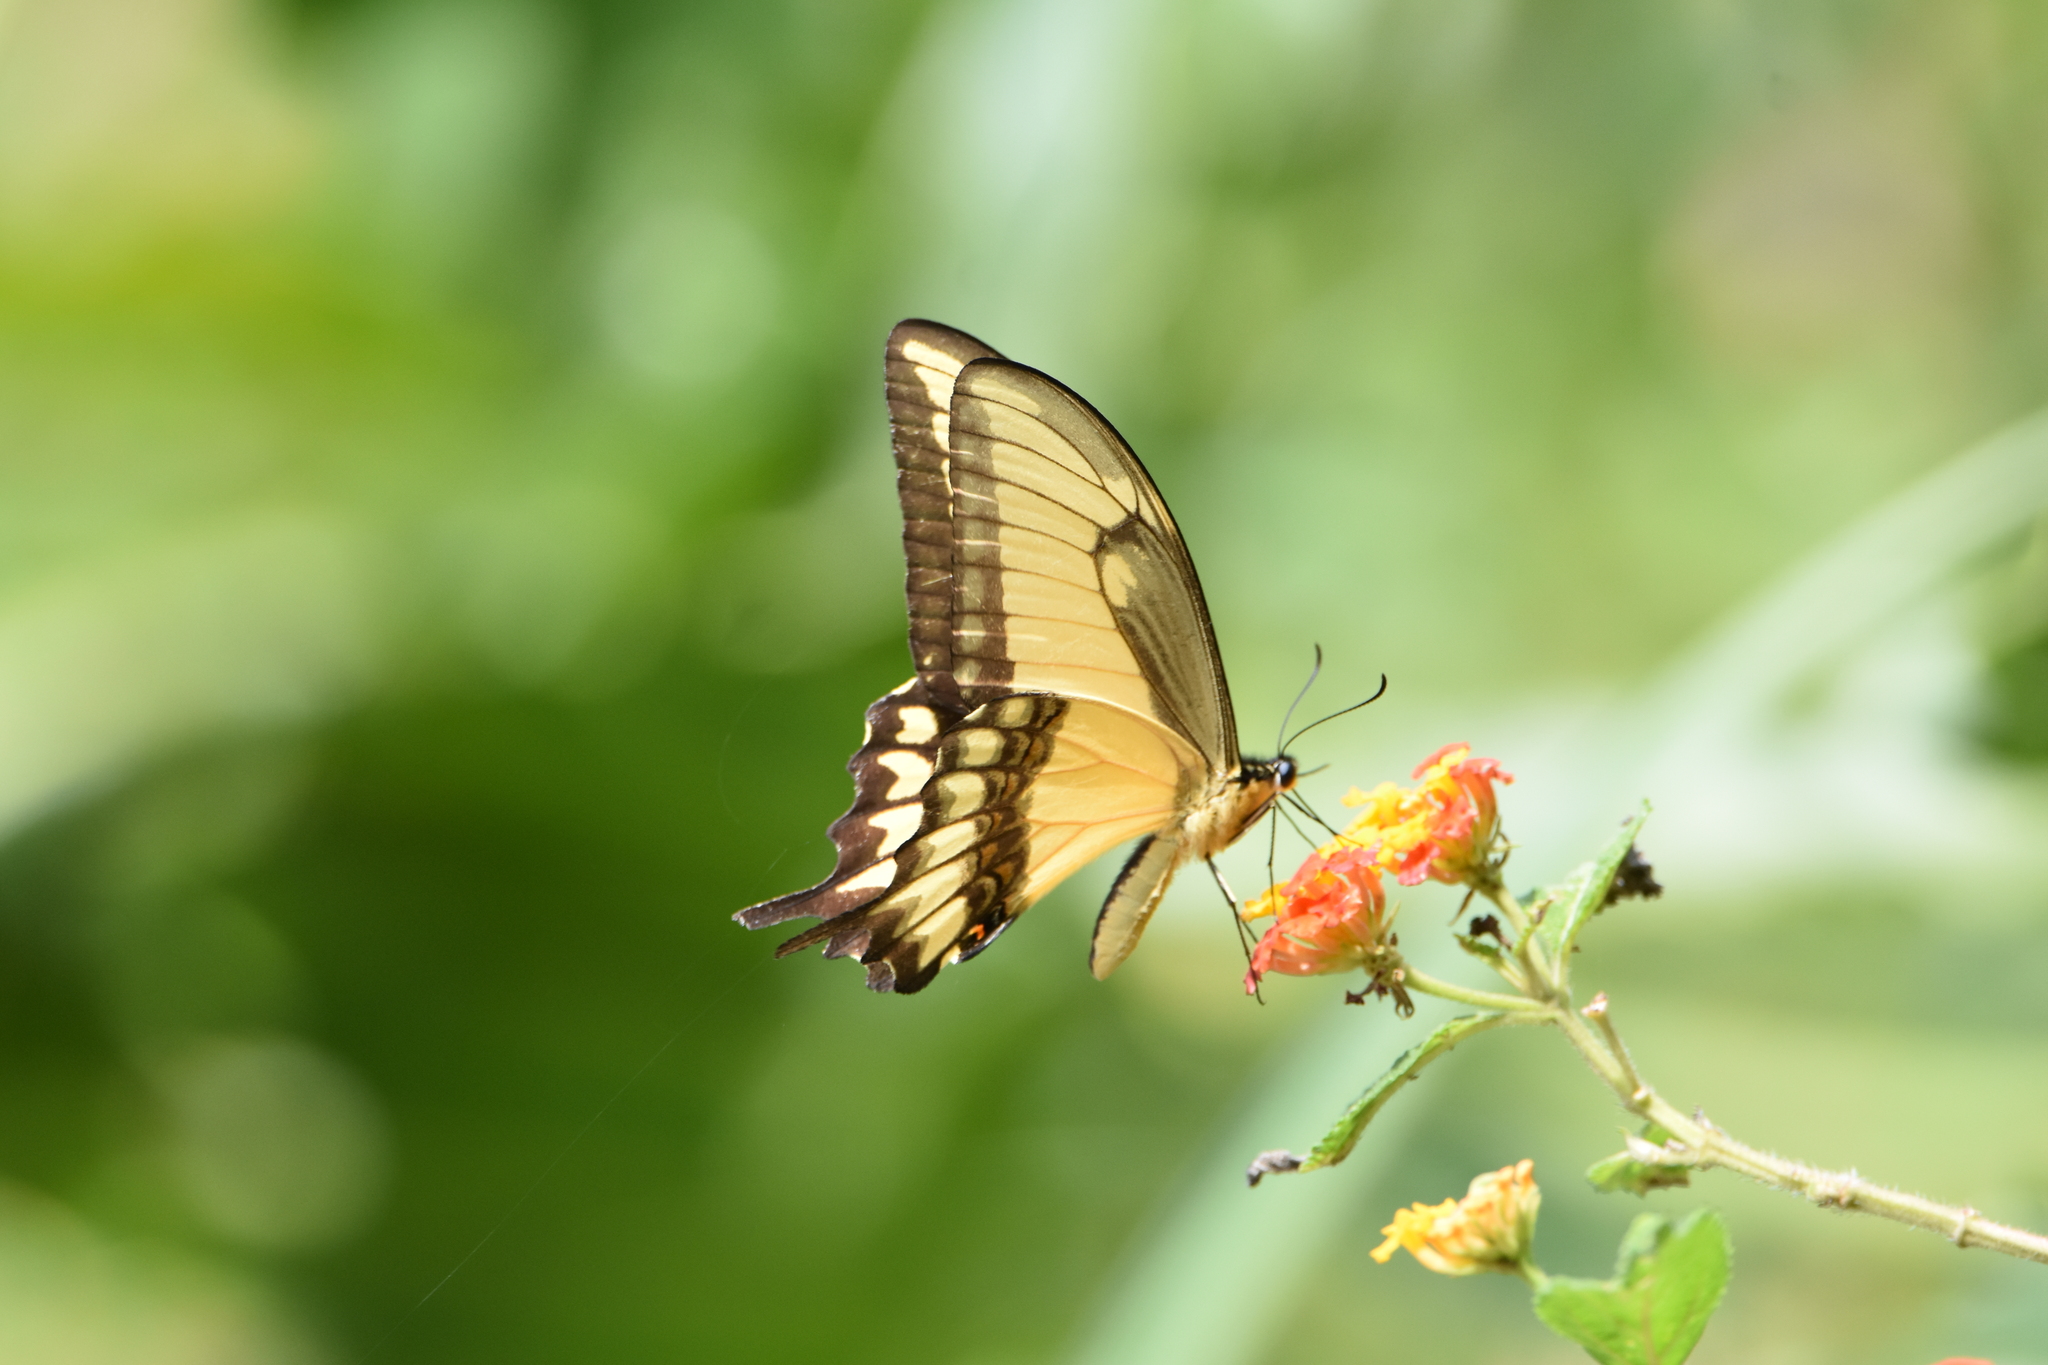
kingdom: Animalia
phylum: Arthropoda
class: Insecta
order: Lepidoptera
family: Papilionidae
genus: Papilio
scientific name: Papilio astyalus
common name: Astyalus swallowtail
